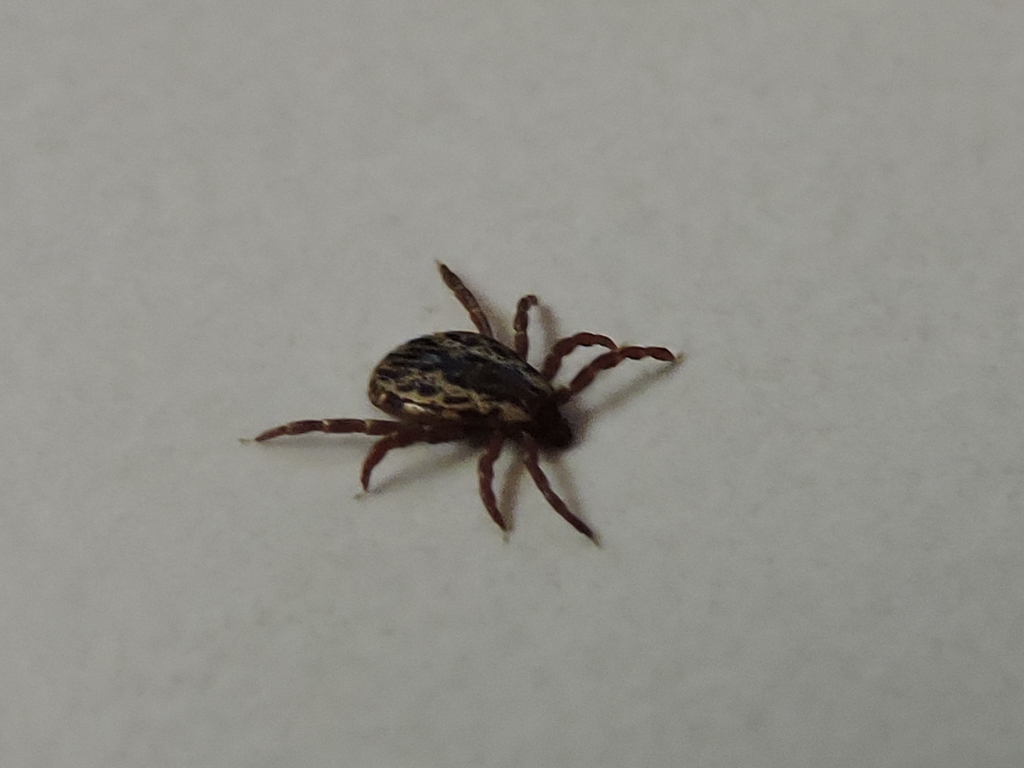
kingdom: Animalia
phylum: Arthropoda
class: Arachnida
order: Ixodida
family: Ixodidae
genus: Dermacentor
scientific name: Dermacentor variabilis
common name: American dog tick
